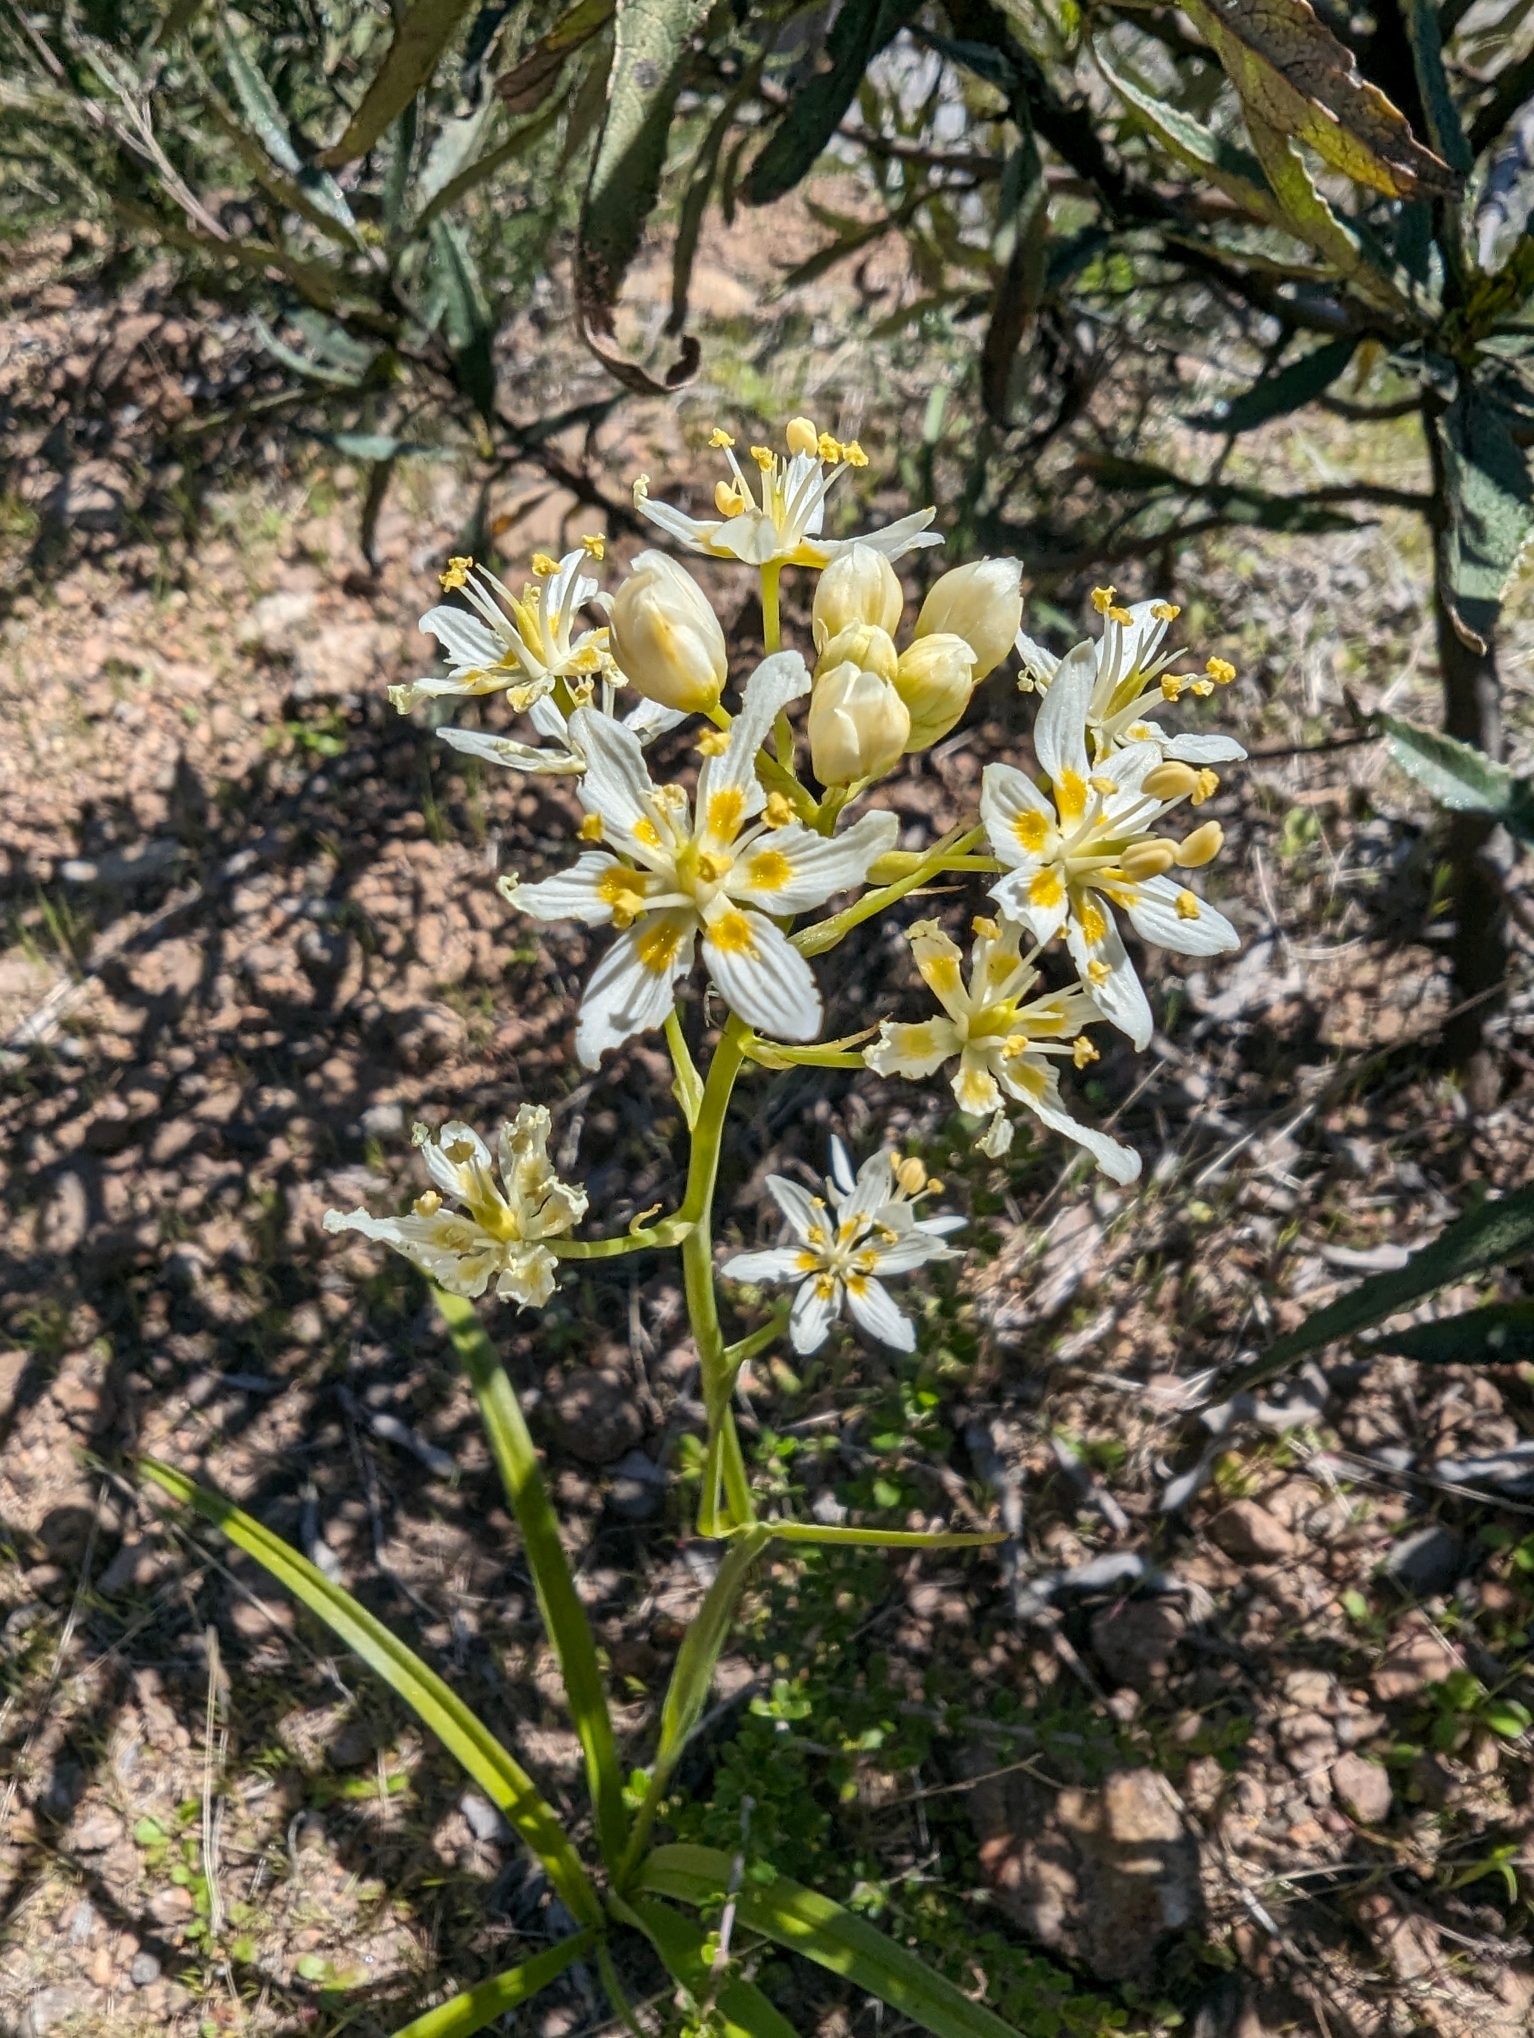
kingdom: Plantae
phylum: Tracheophyta
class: Liliopsida
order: Liliales
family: Melanthiaceae
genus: Toxicoscordion
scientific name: Toxicoscordion fremontii
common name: Fremont's death camas
